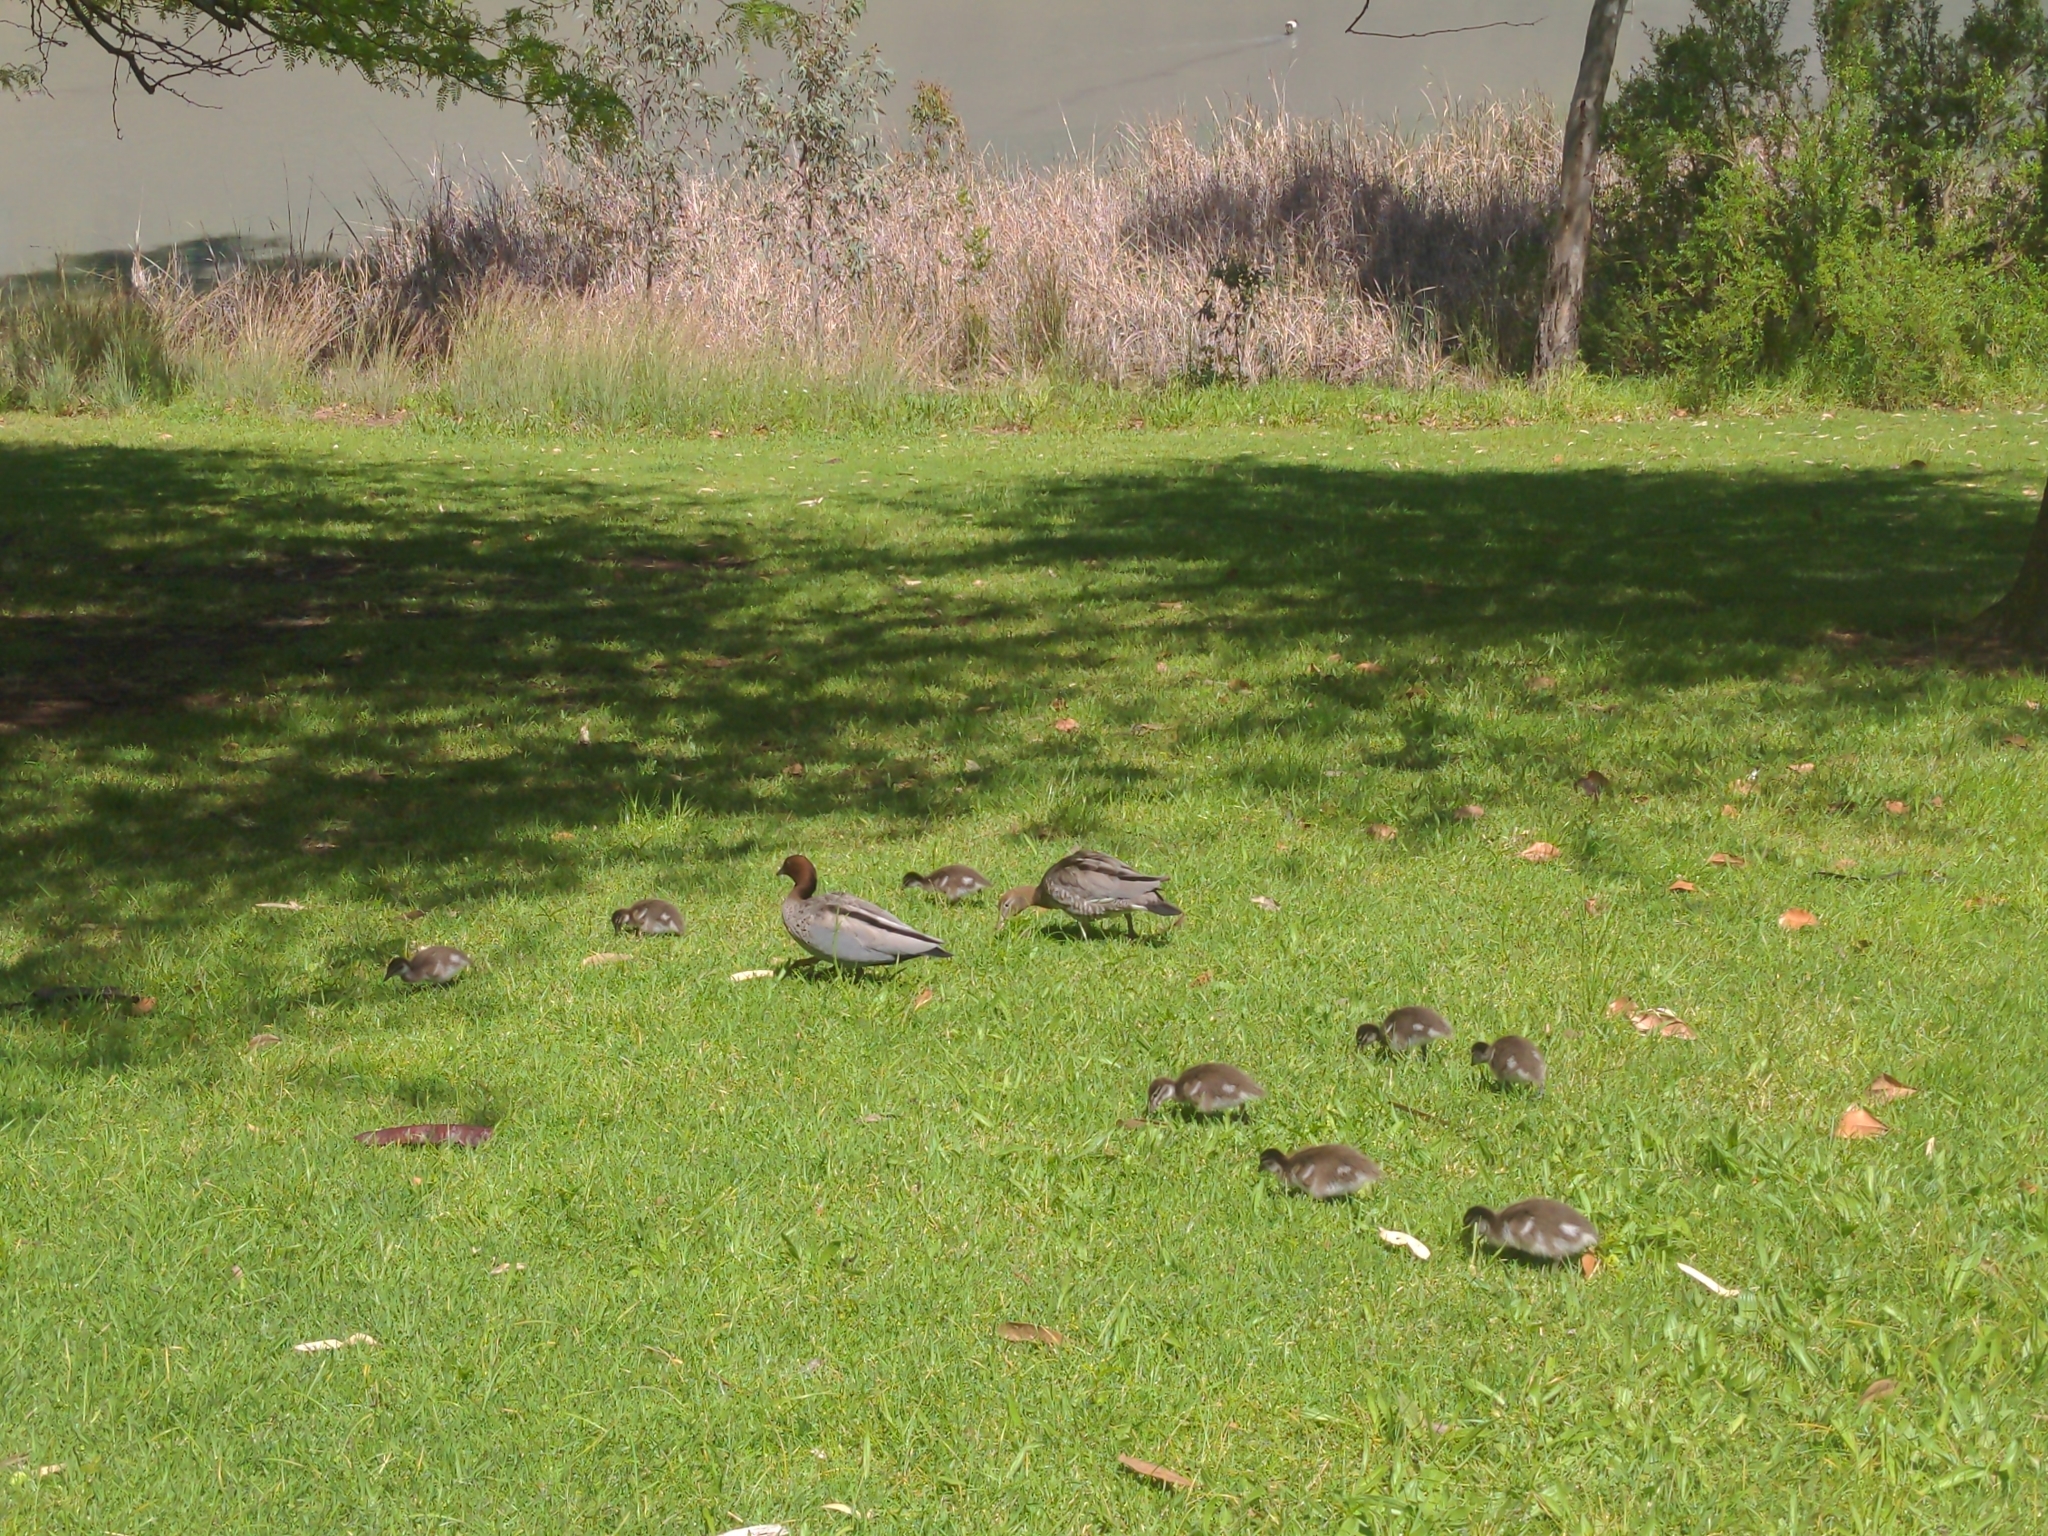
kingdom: Animalia
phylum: Chordata
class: Aves
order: Anseriformes
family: Anatidae
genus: Chenonetta
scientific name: Chenonetta jubata
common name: Maned duck
